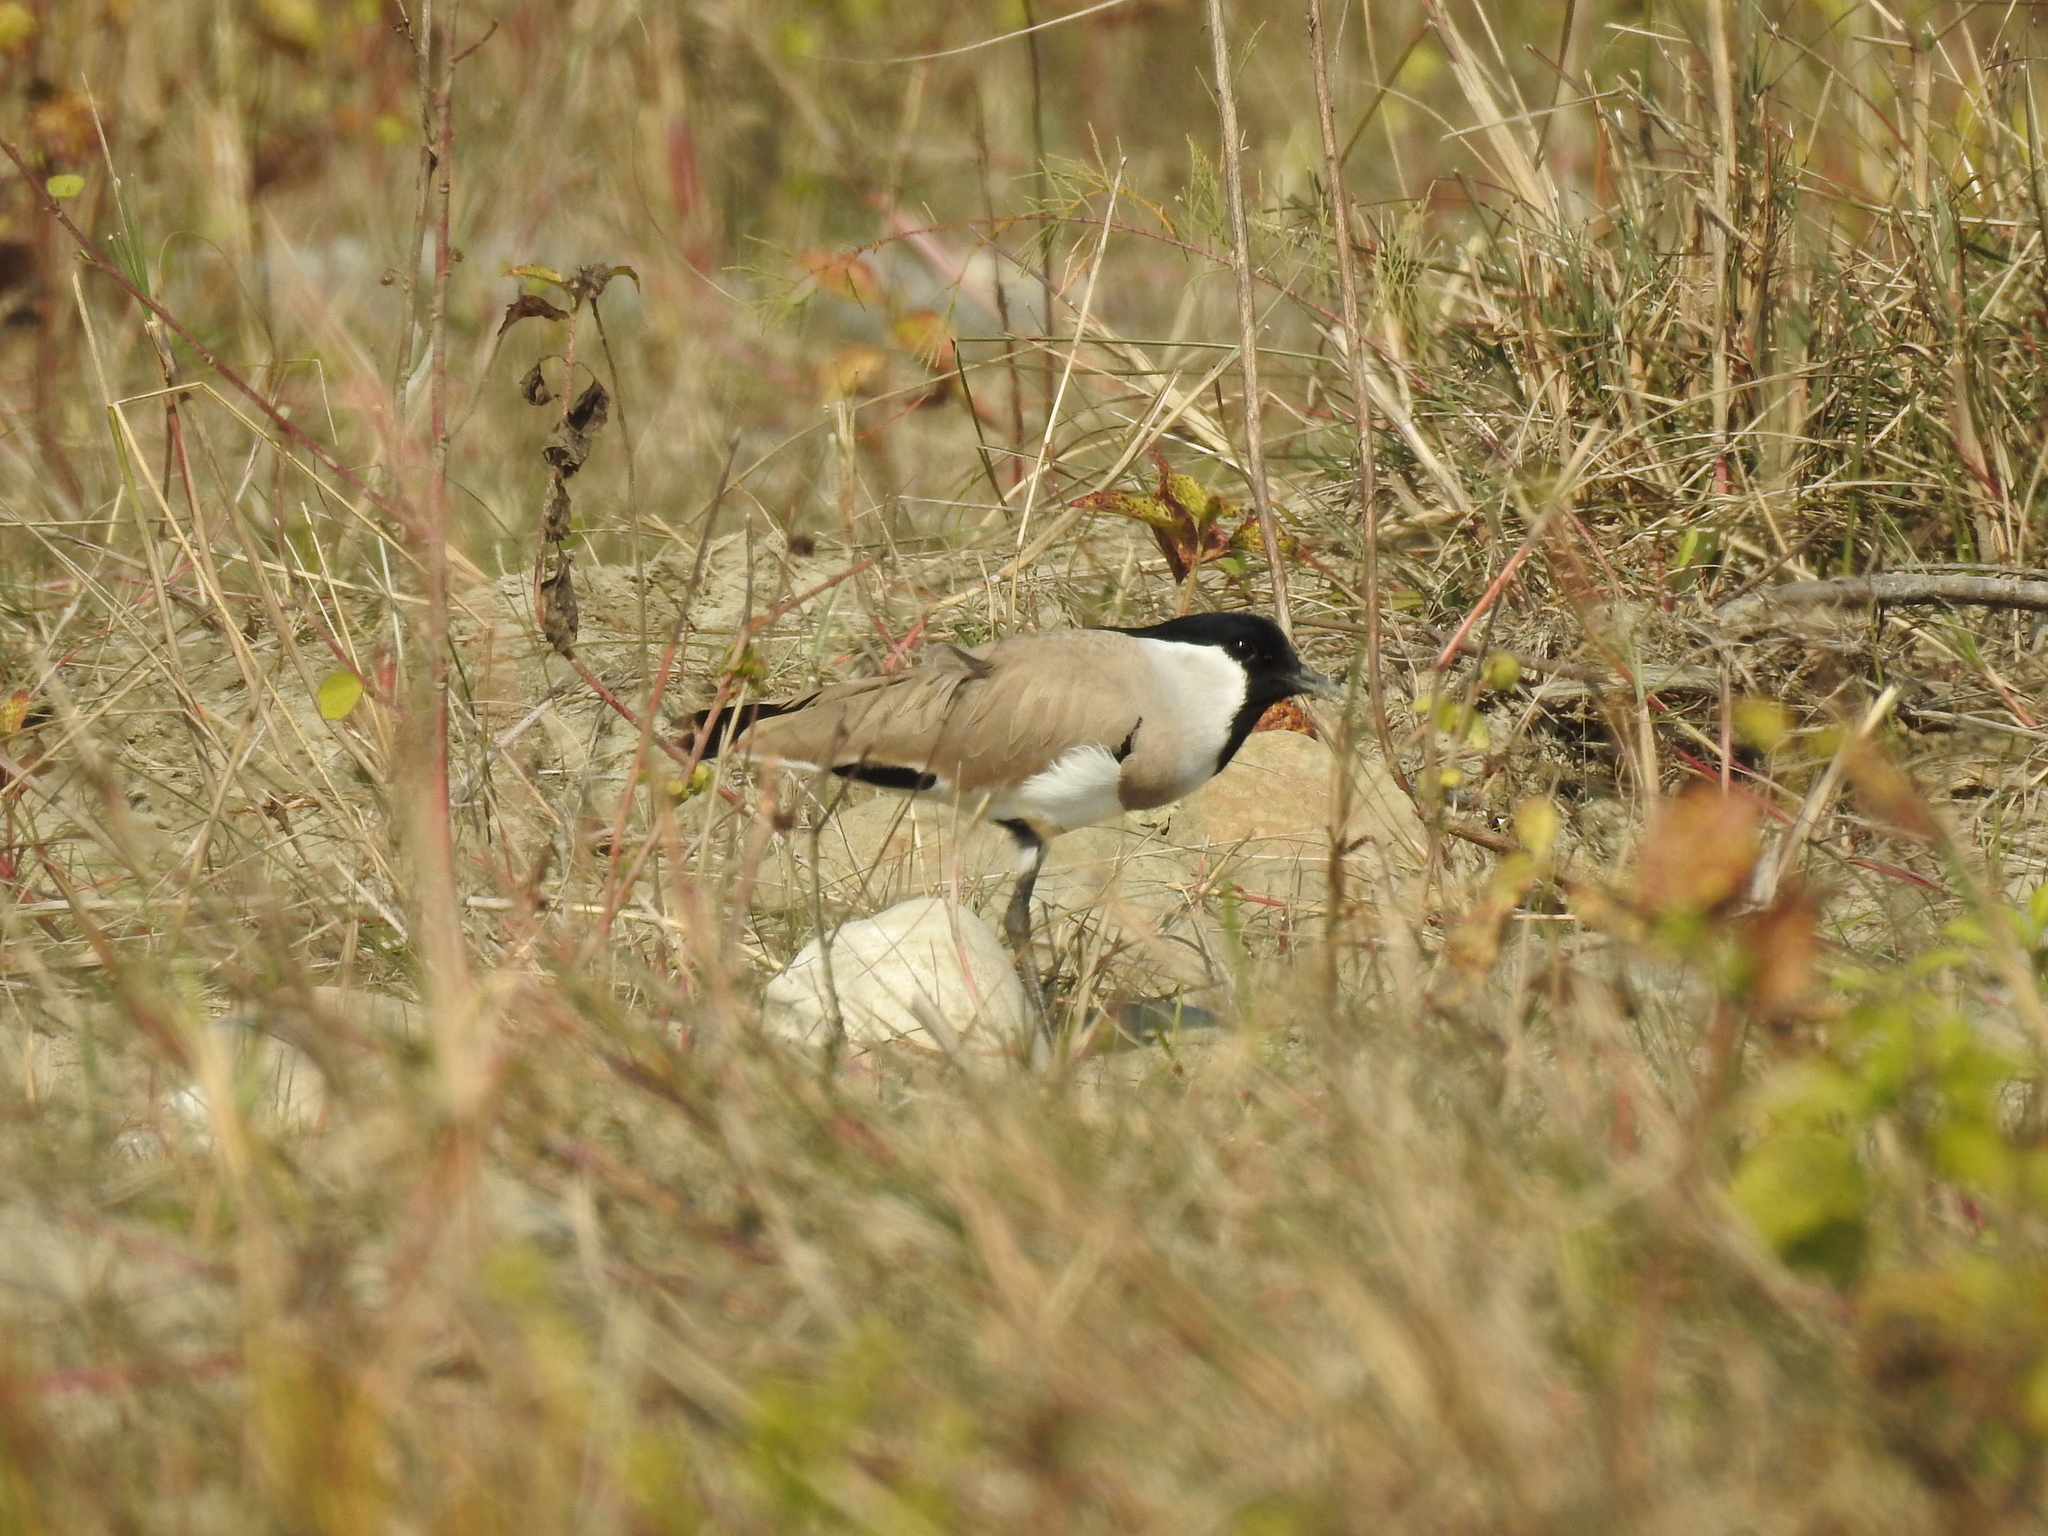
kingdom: Animalia
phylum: Chordata
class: Aves
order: Charadriiformes
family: Charadriidae
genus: Vanellus
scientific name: Vanellus duvaucelii
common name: River lapwing
